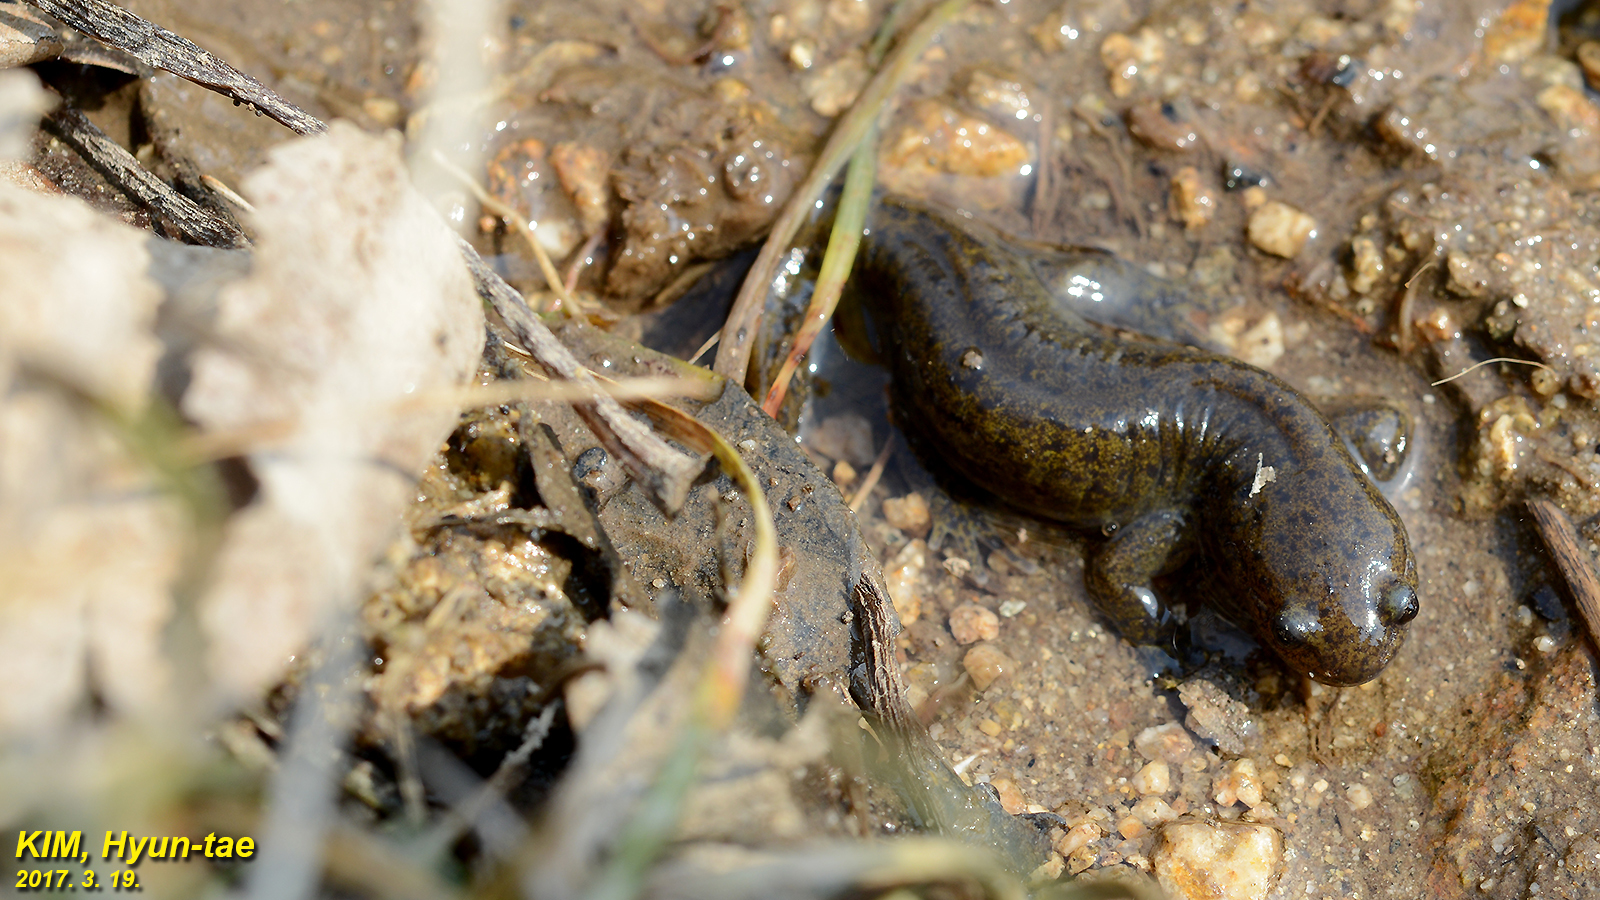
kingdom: Animalia
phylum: Chordata
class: Amphibia
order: Caudata
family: Hynobiidae
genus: Hynobius
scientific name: Hynobius leechii
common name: Gensan salamander
